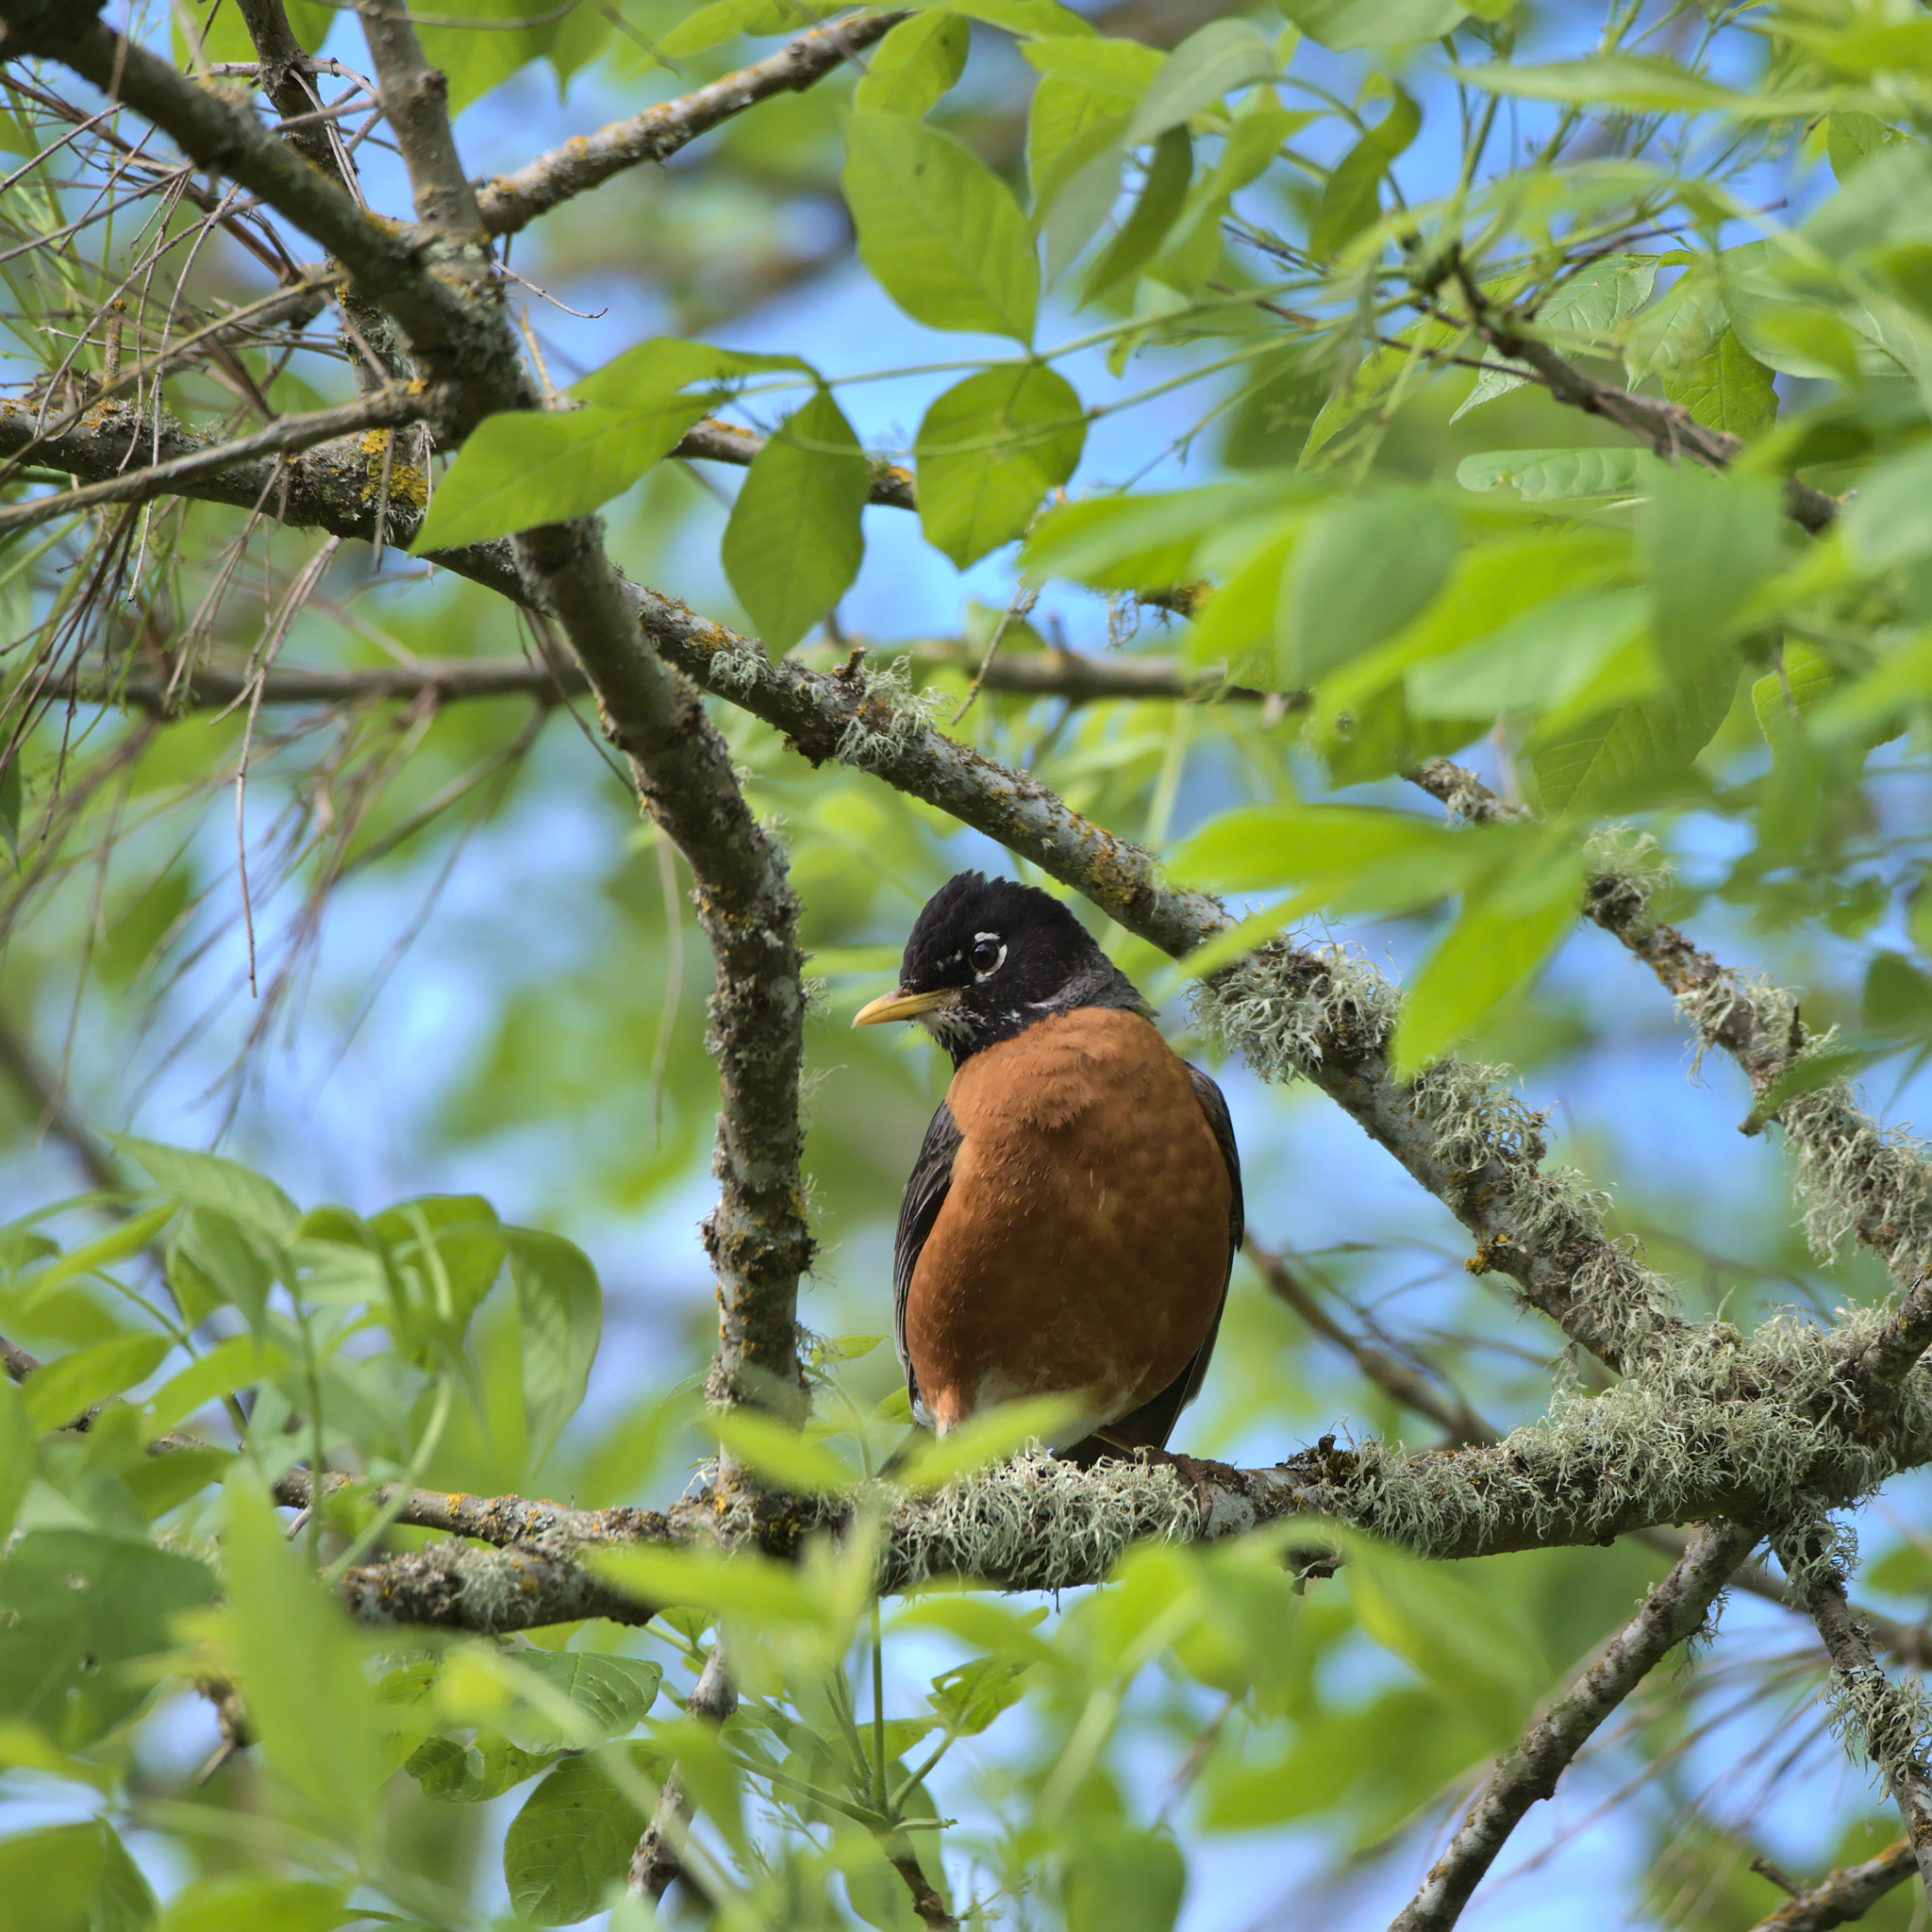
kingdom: Animalia
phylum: Chordata
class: Aves
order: Passeriformes
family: Turdidae
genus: Turdus
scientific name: Turdus migratorius
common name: American robin
